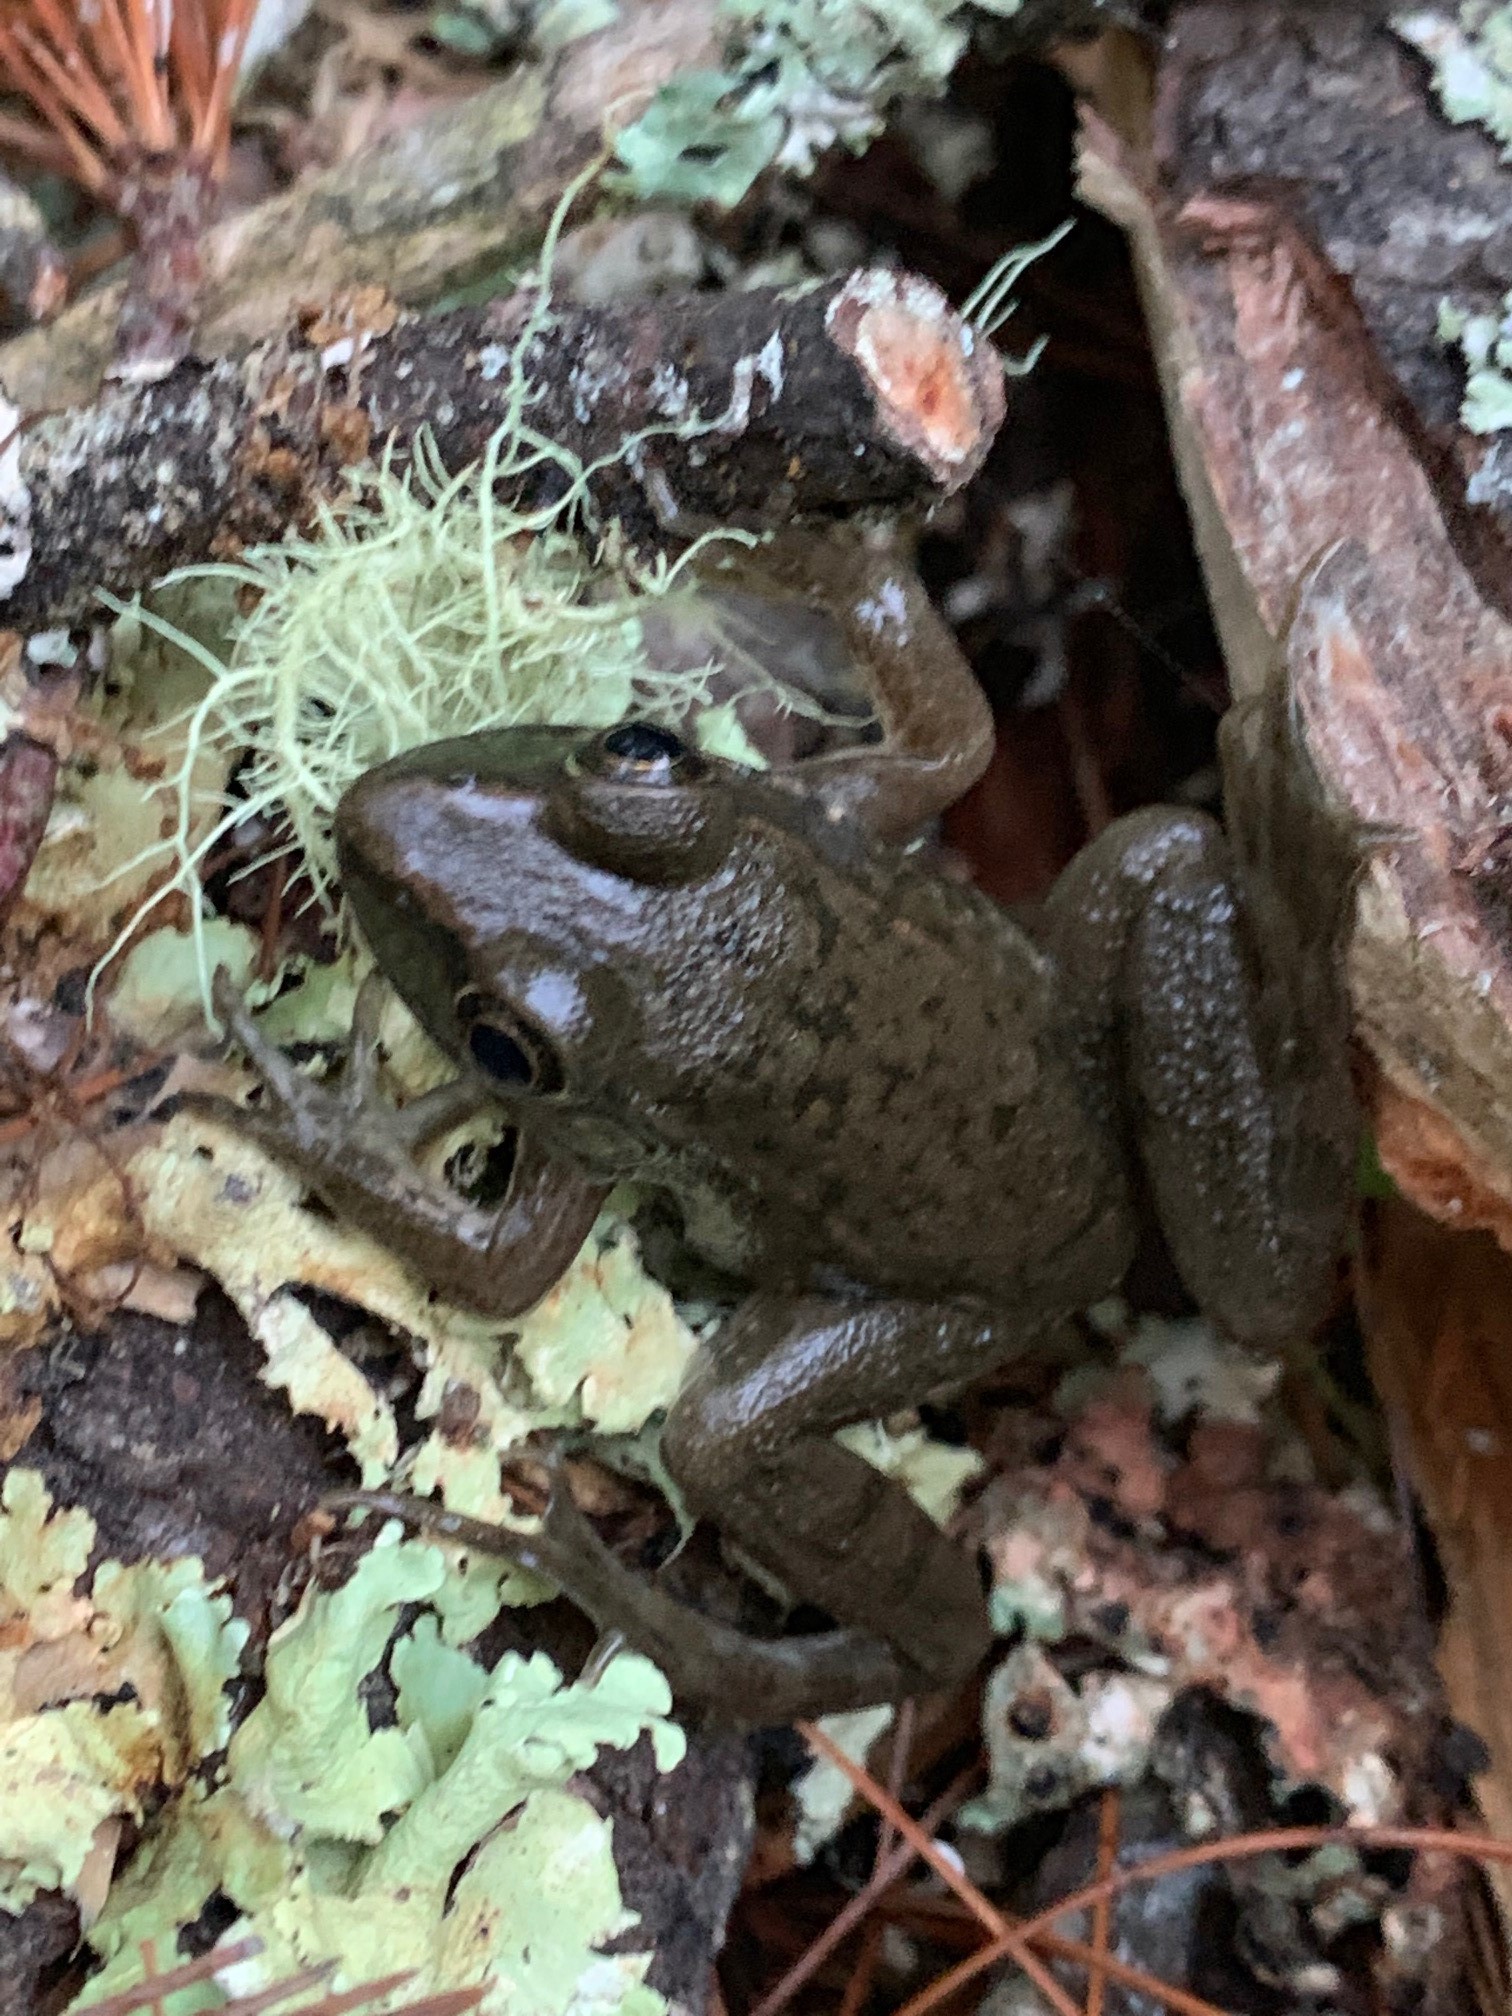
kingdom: Animalia
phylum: Chordata
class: Amphibia
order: Anura
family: Ranidae
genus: Lithobates
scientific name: Lithobates clamitans
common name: Green frog
